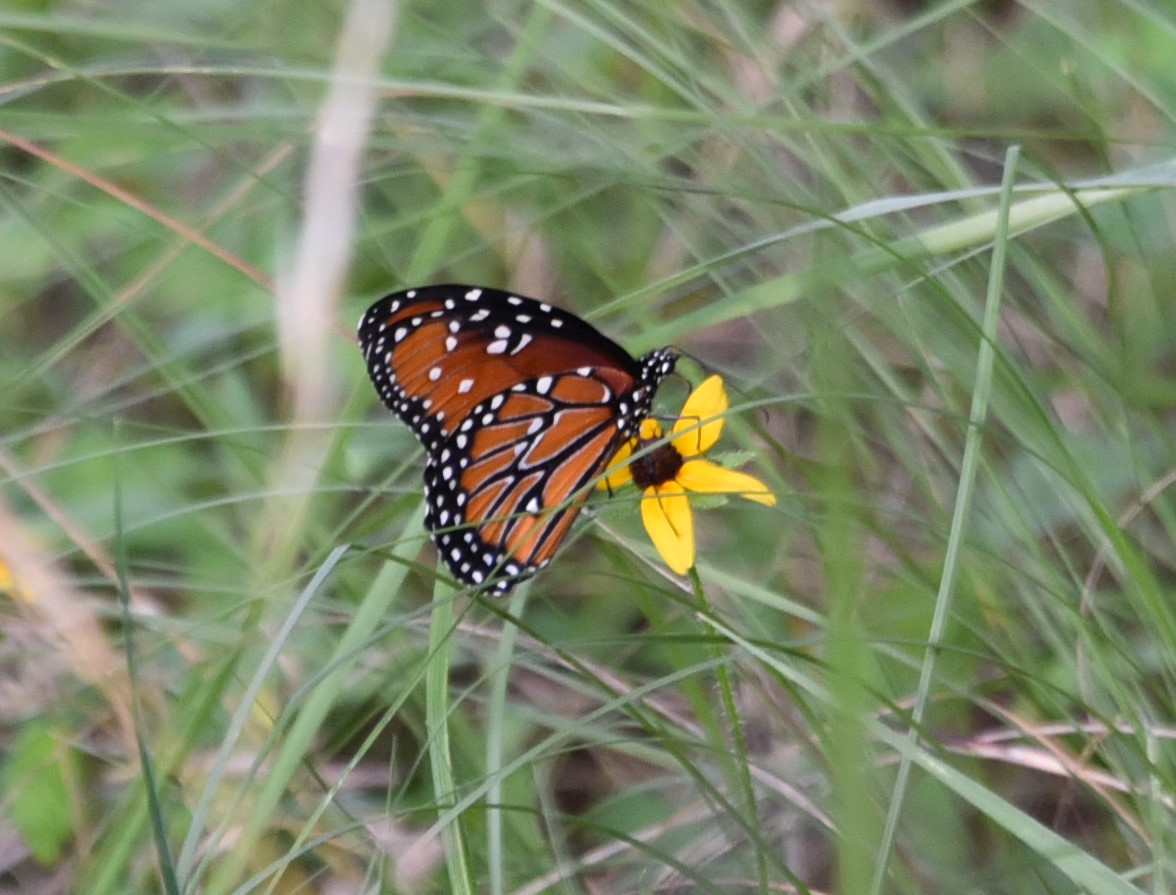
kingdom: Animalia
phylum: Arthropoda
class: Insecta
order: Lepidoptera
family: Nymphalidae
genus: Danaus
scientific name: Danaus gilippus
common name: Queen
